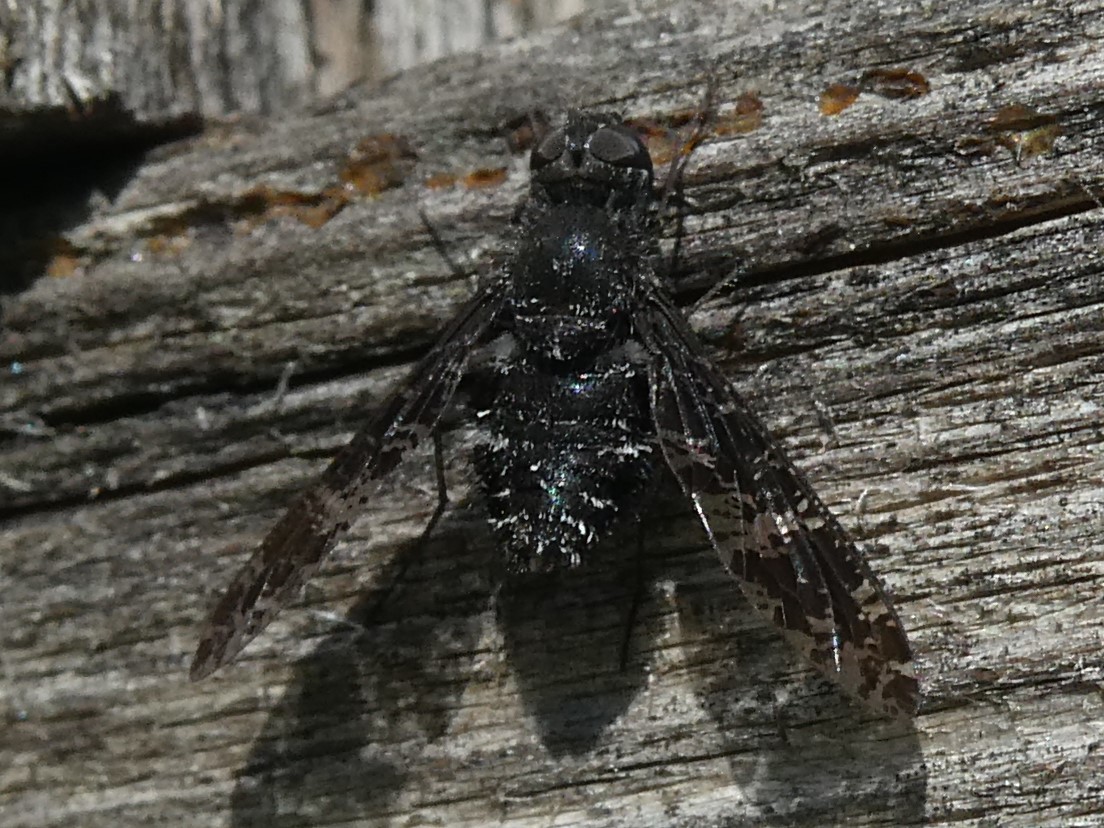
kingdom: Animalia
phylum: Arthropoda
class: Insecta
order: Diptera
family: Bombyliidae
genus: Anthrax
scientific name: Anthrax irroratus
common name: Spotted bee fly
